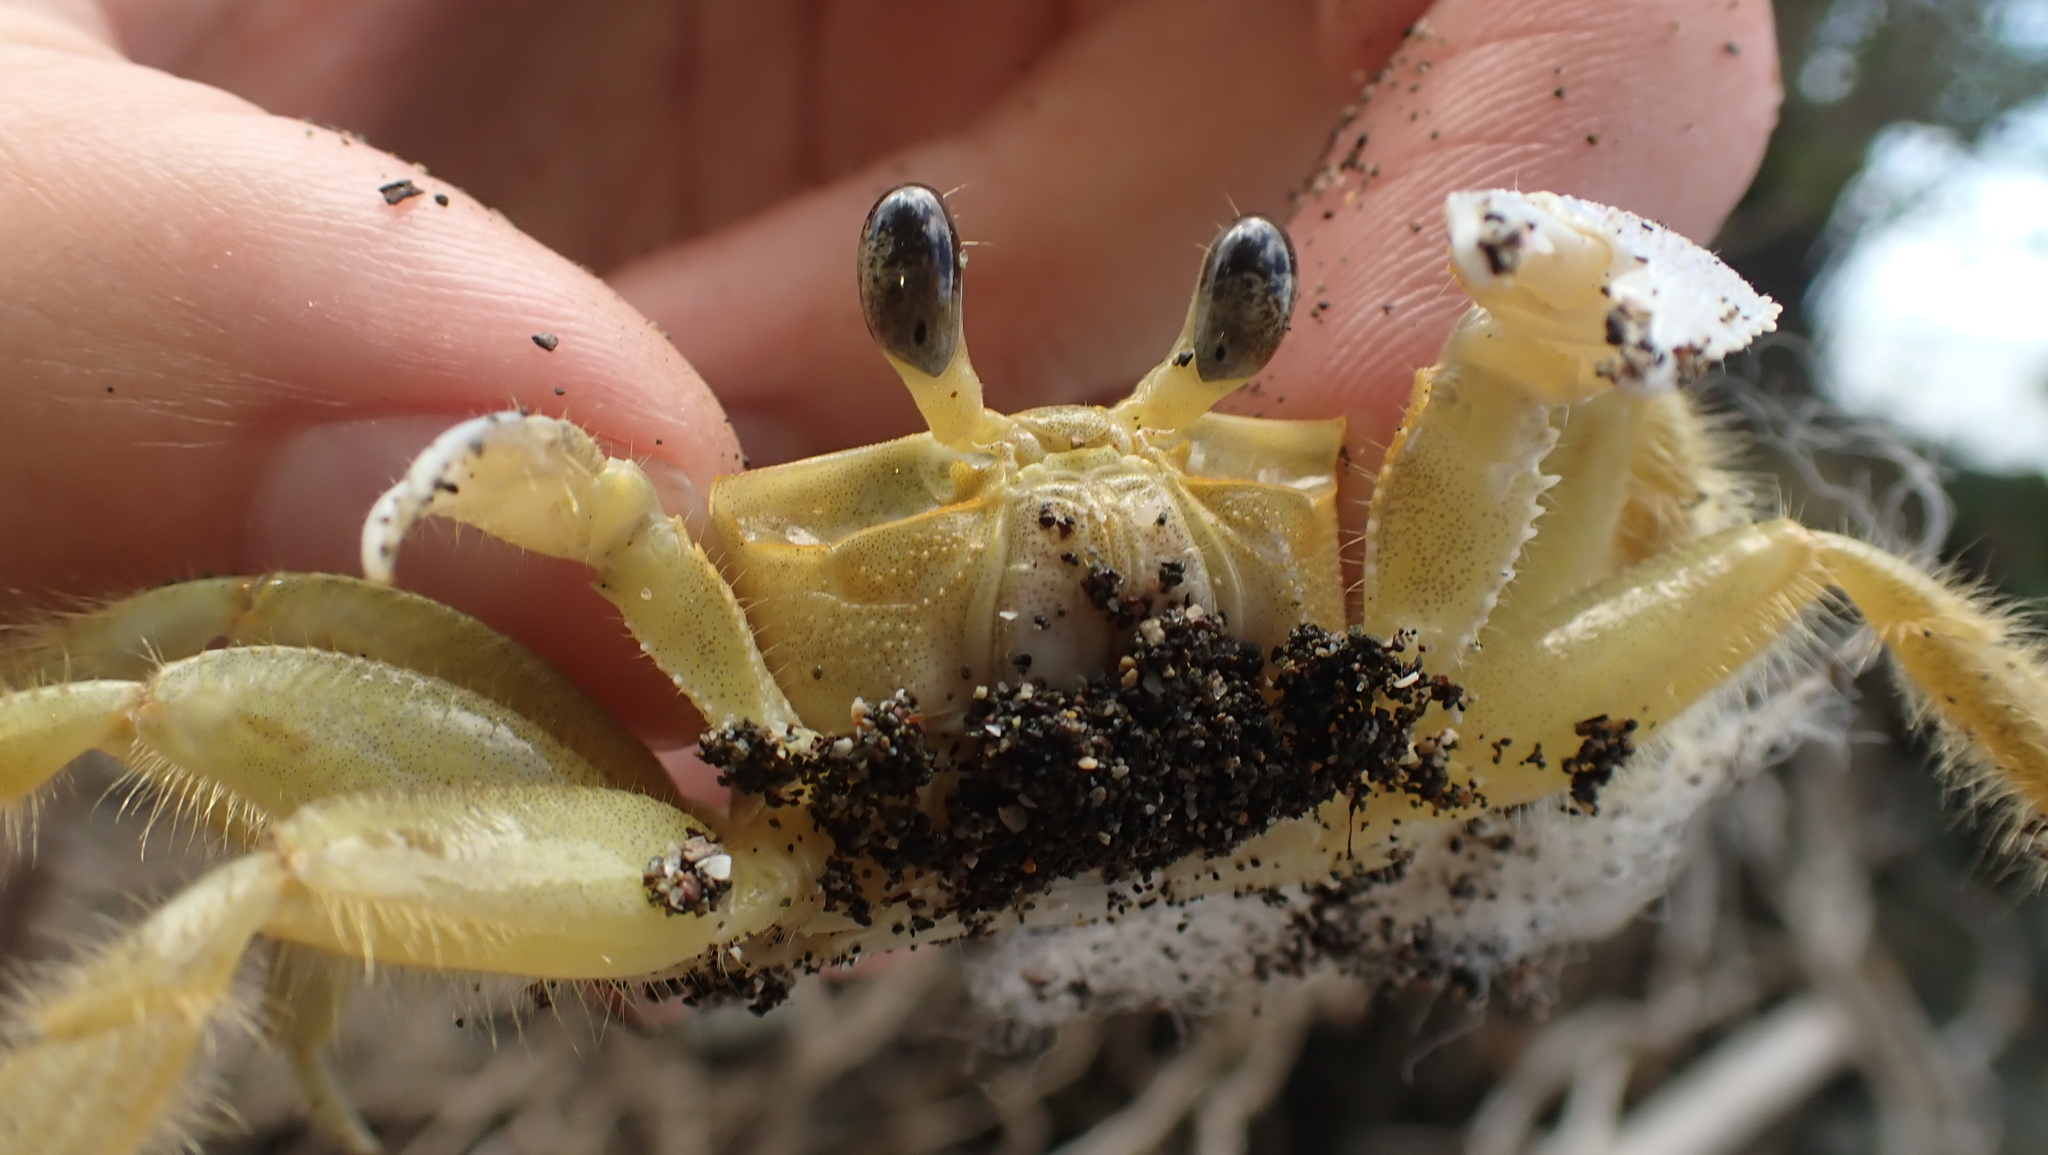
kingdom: Animalia
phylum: Arthropoda
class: Malacostraca
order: Decapoda
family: Ocypodidae
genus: Ocypode
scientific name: Ocypode quadrata
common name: Ghost crab
